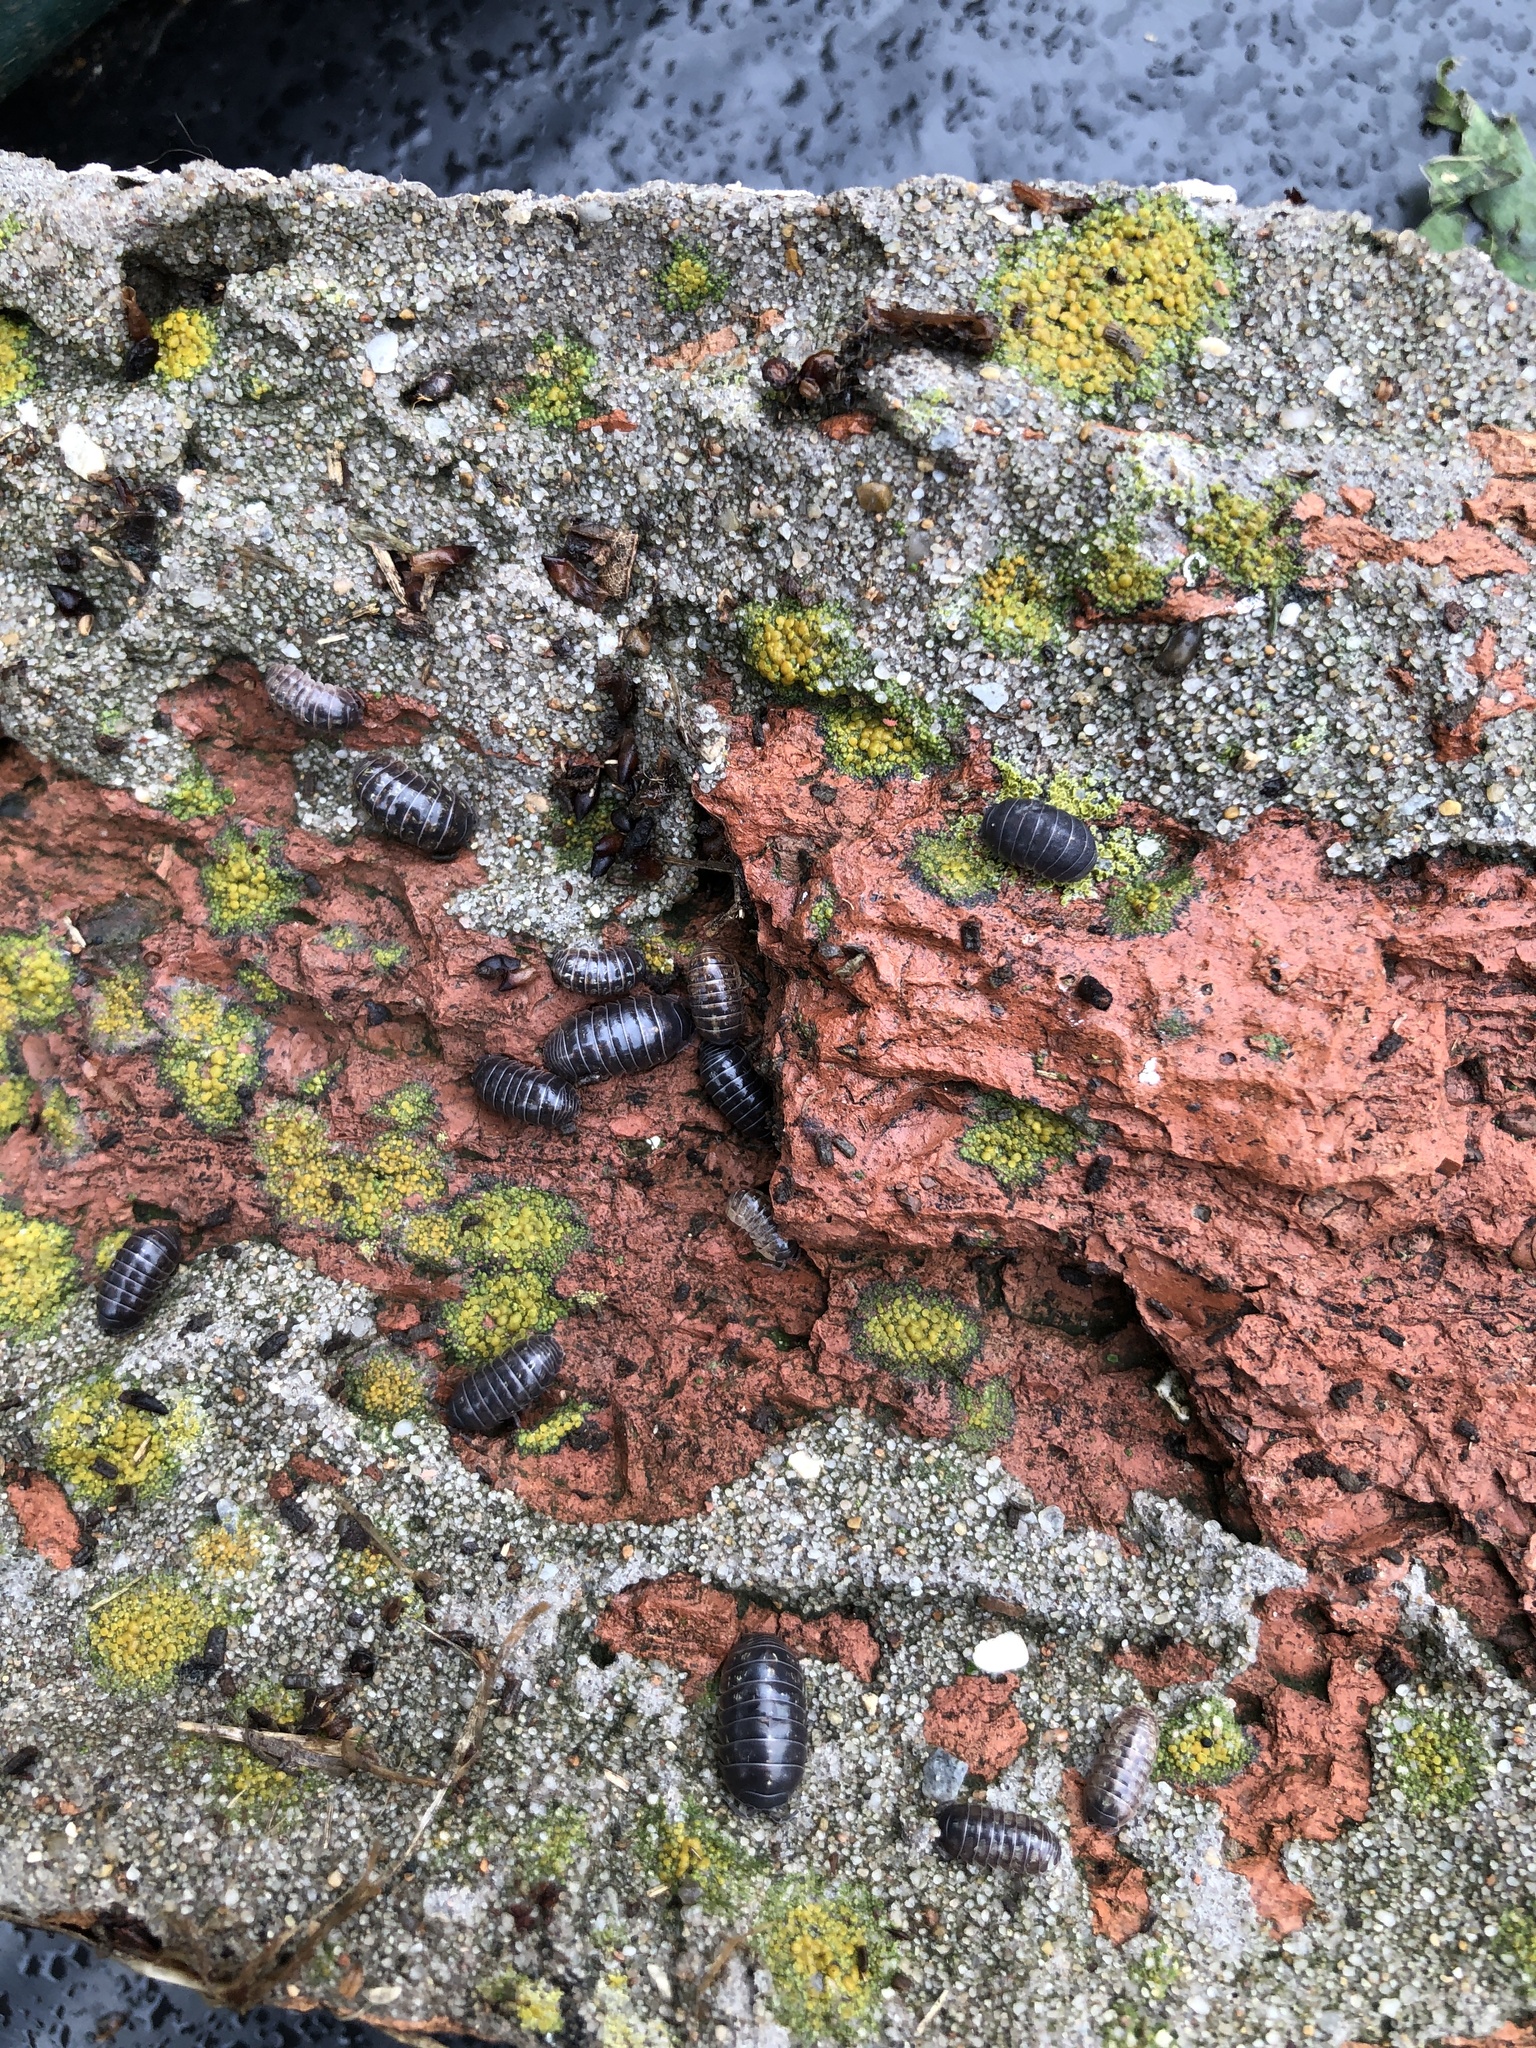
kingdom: Animalia
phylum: Arthropoda
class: Malacostraca
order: Isopoda
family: Armadillidiidae
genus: Armadillidium
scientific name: Armadillidium vulgare
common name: Common pill woodlouse
